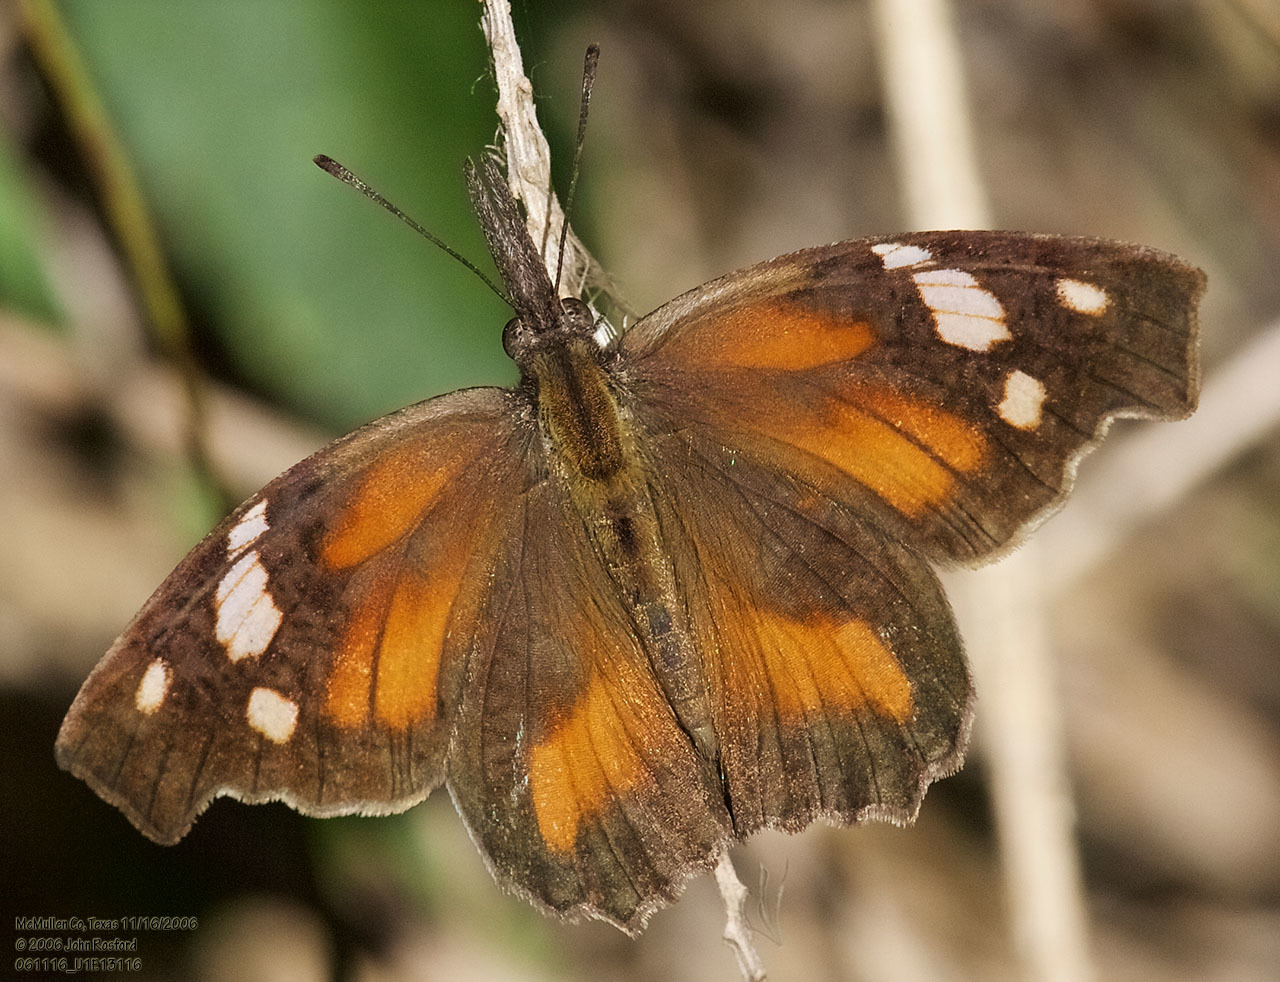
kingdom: Animalia
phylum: Arthropoda
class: Insecta
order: Lepidoptera
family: Nymphalidae
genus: Libytheana
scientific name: Libytheana carinenta
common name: American snout
